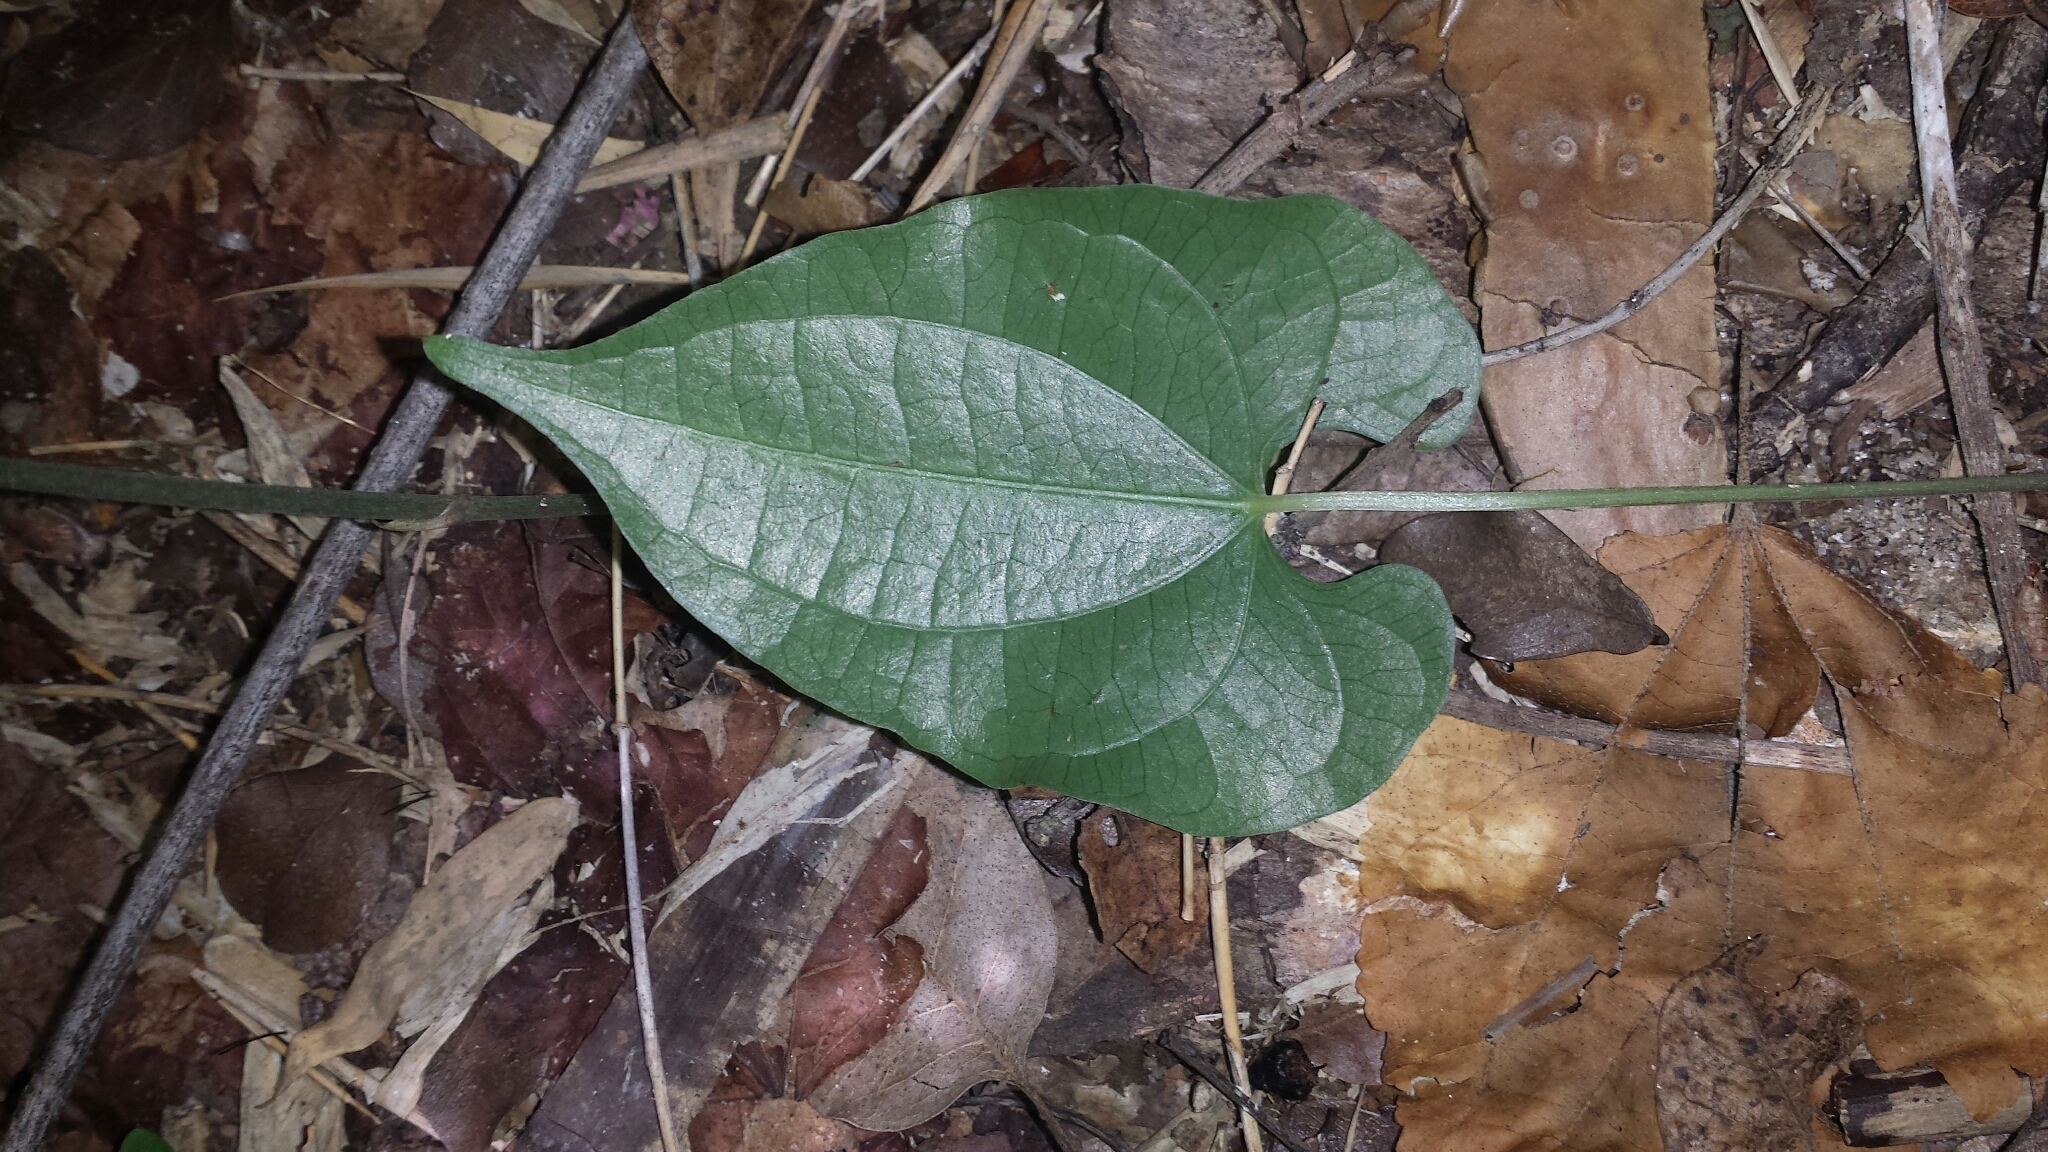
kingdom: Plantae
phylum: Tracheophyta
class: Liliopsida
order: Dioscoreales
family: Dioscoreaceae
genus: Dioscorea
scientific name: Dioscorea maciba
